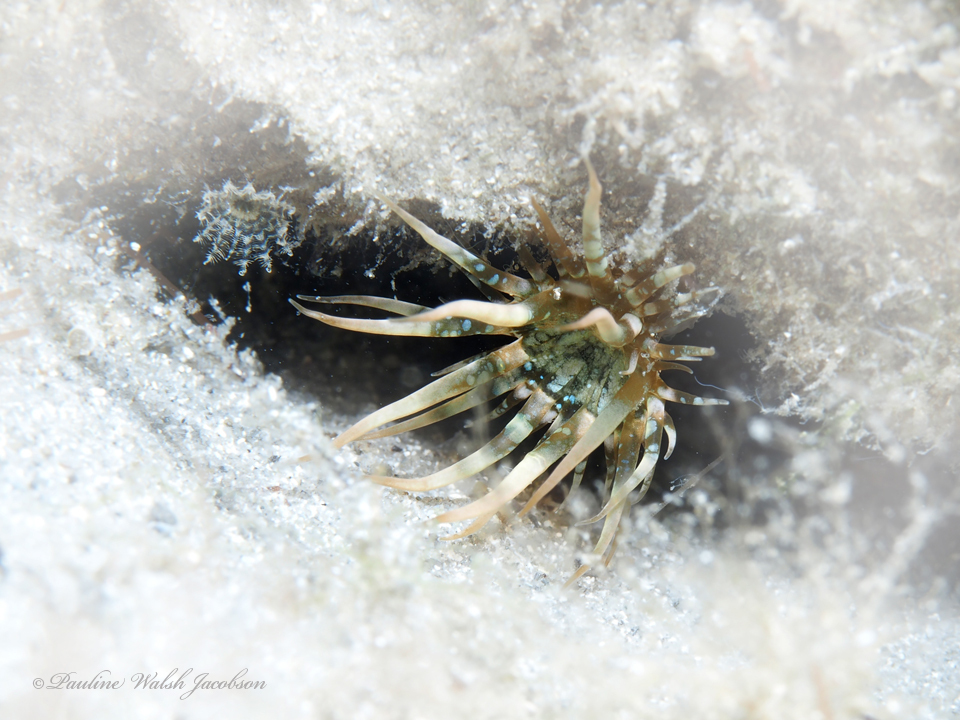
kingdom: Animalia
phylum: Cnidaria
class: Anthozoa
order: Actiniaria
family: Aiptasiidae
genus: Exaiptasia
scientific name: Exaiptasia diaphana
